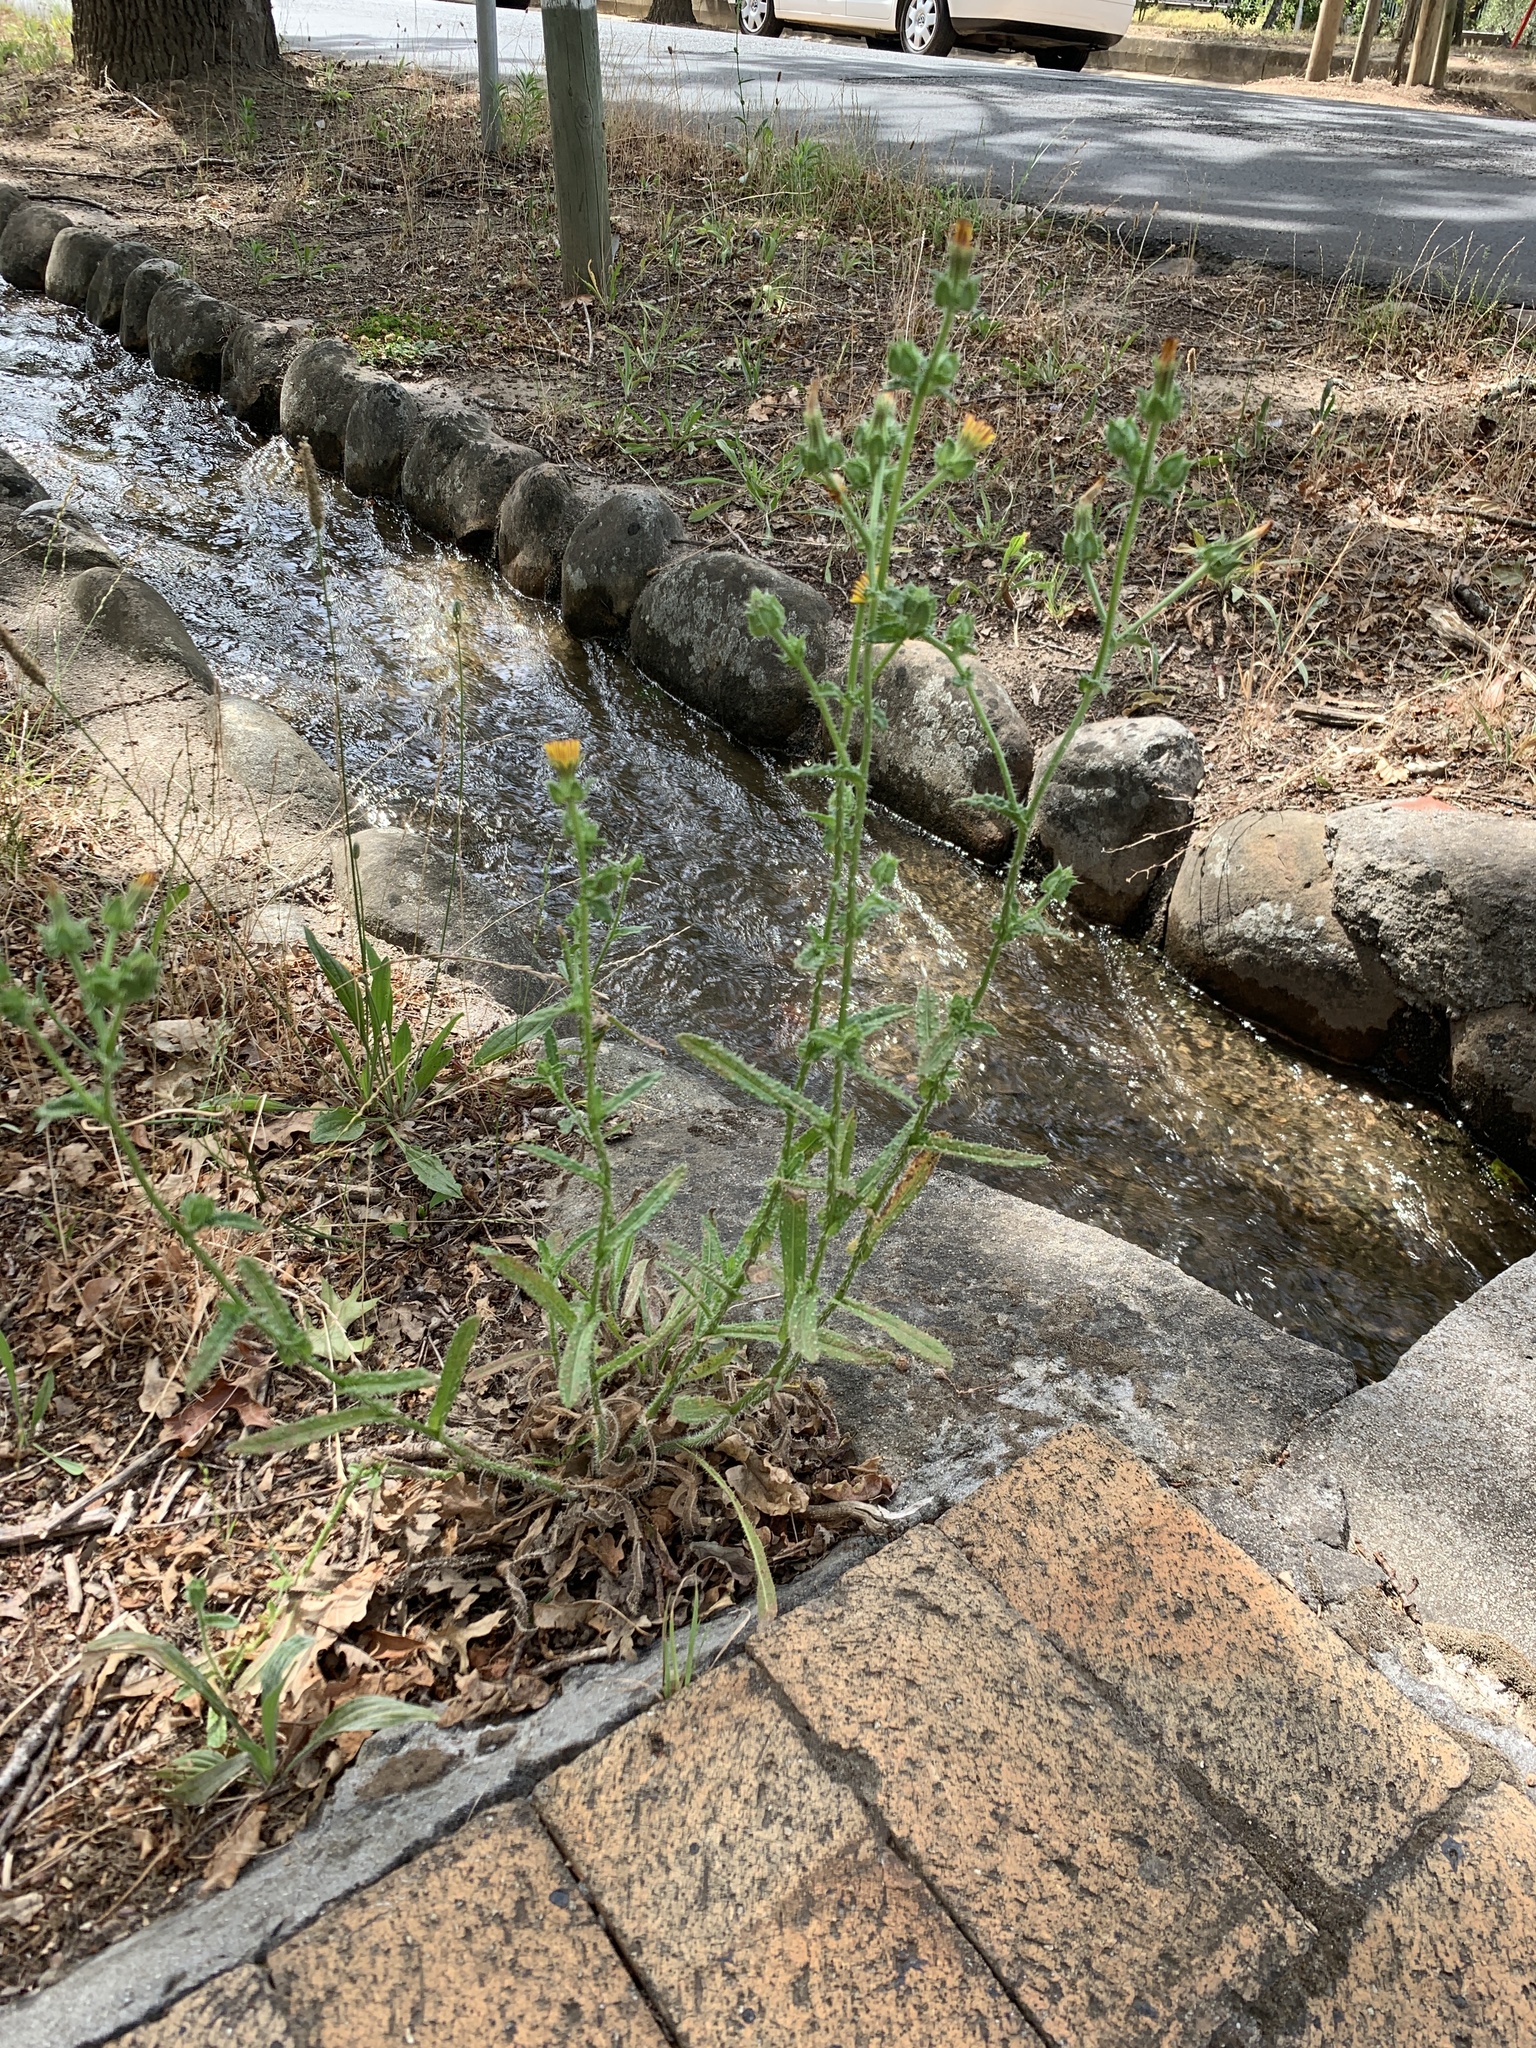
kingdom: Plantae
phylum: Tracheophyta
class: Magnoliopsida
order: Asterales
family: Asteraceae
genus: Helminthotheca
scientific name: Helminthotheca echioides
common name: Ox-tongue
